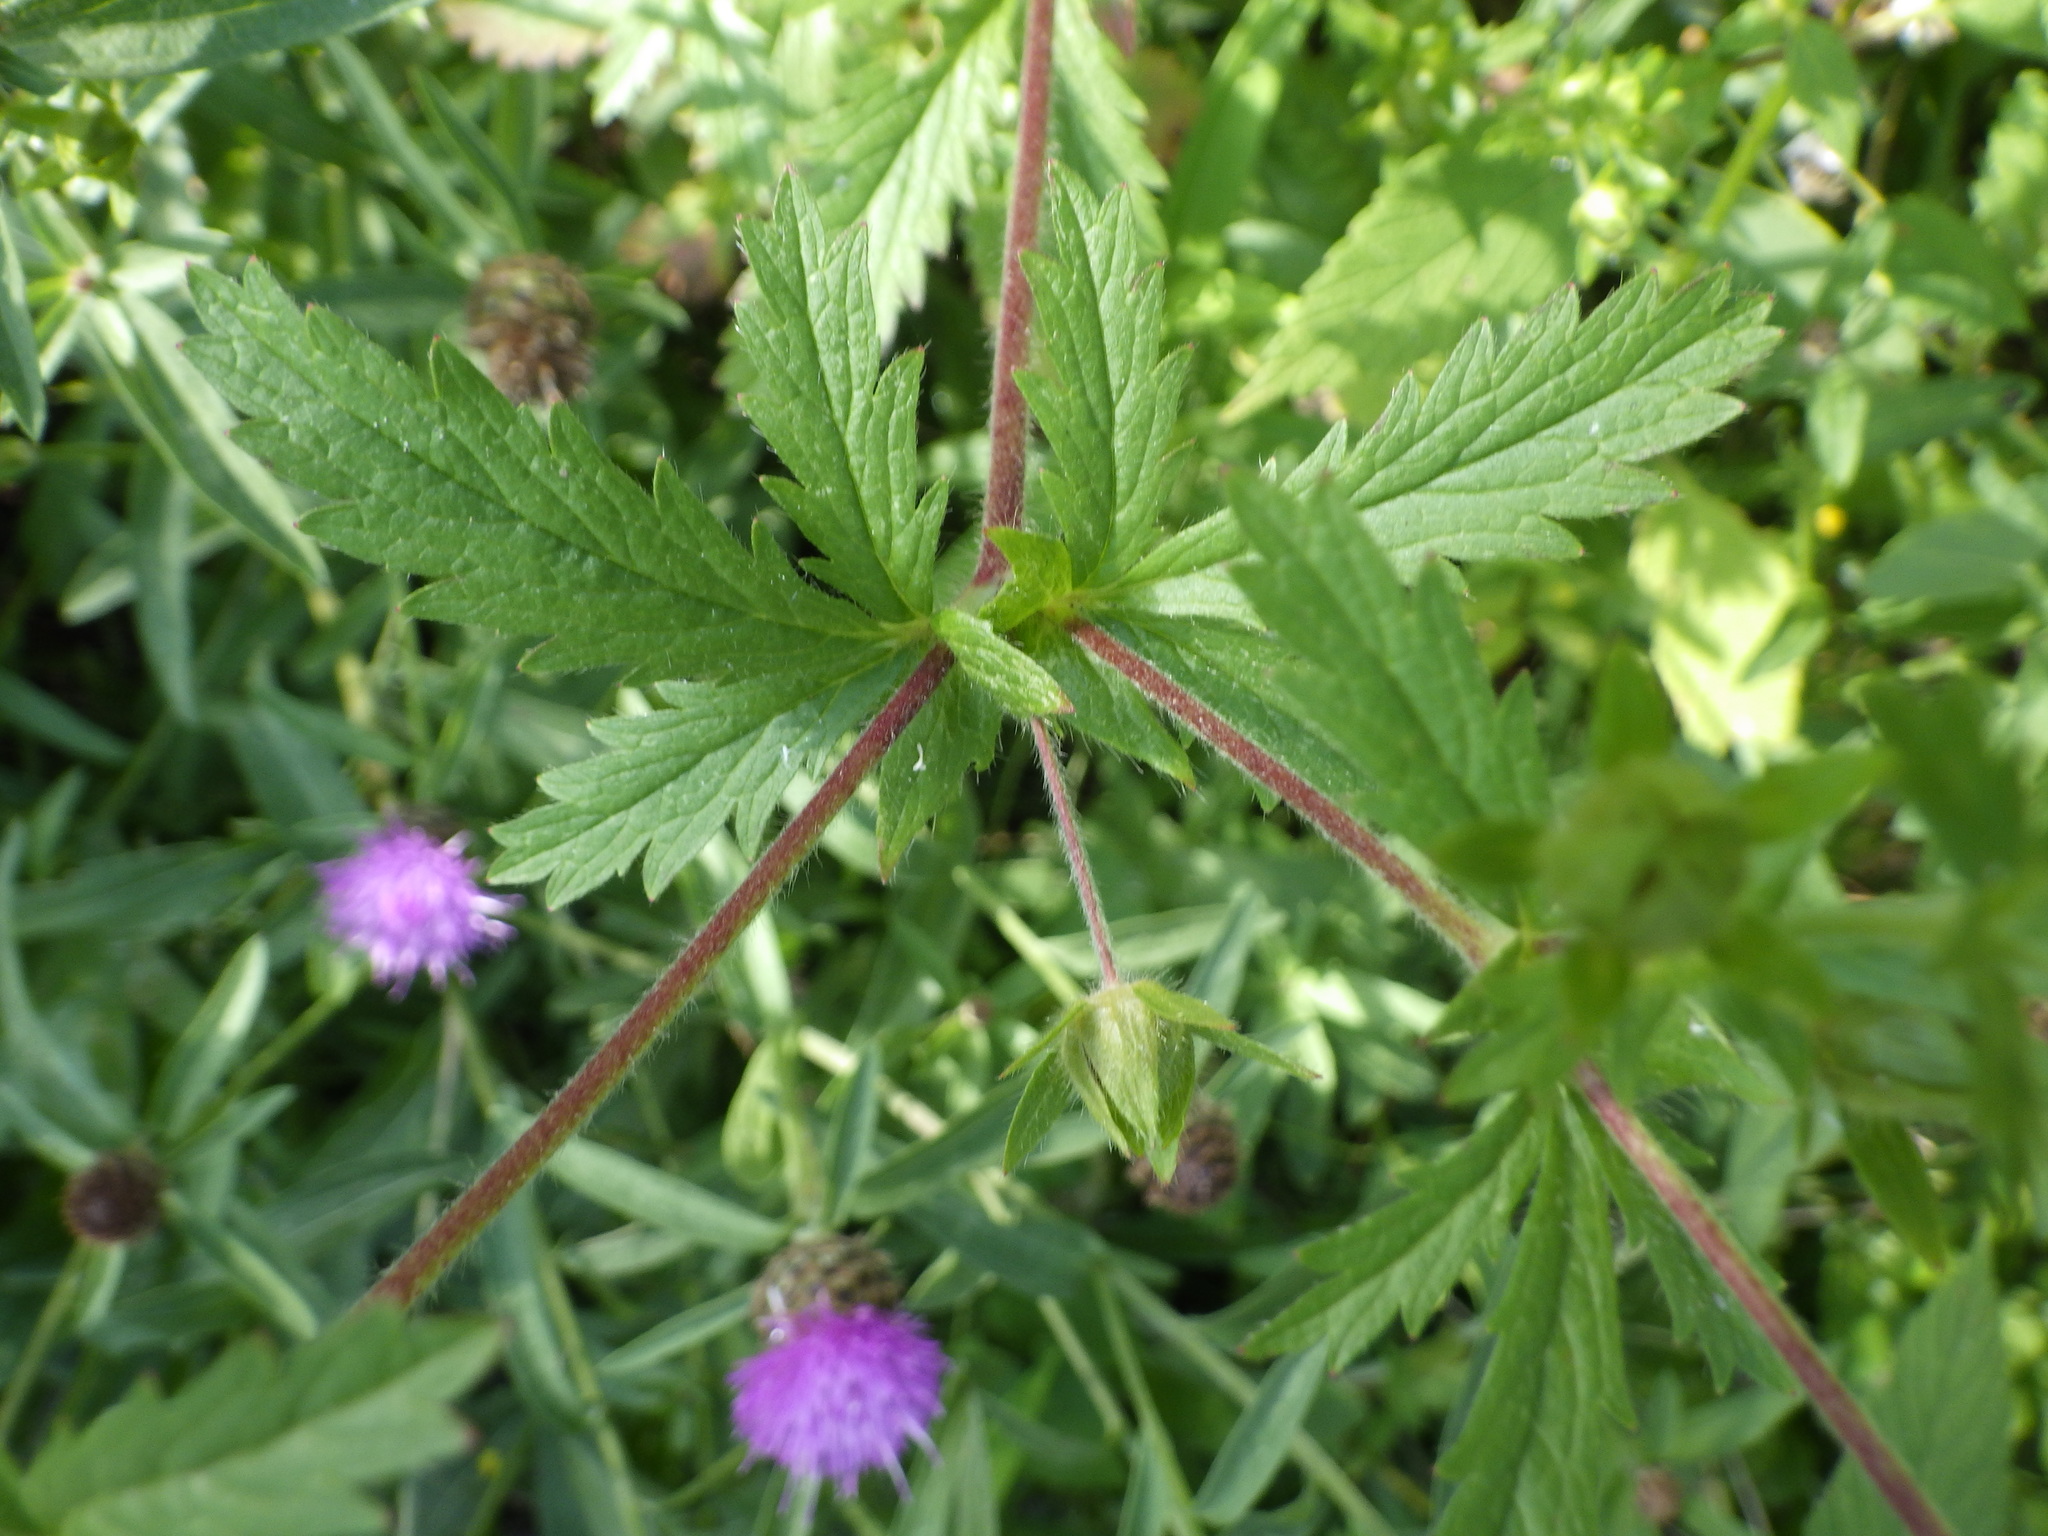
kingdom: Plantae
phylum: Tracheophyta
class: Magnoliopsida
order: Rosales
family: Rosaceae
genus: Potentilla
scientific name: Potentilla norvegica
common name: Ternate-leaved cinquefoil
